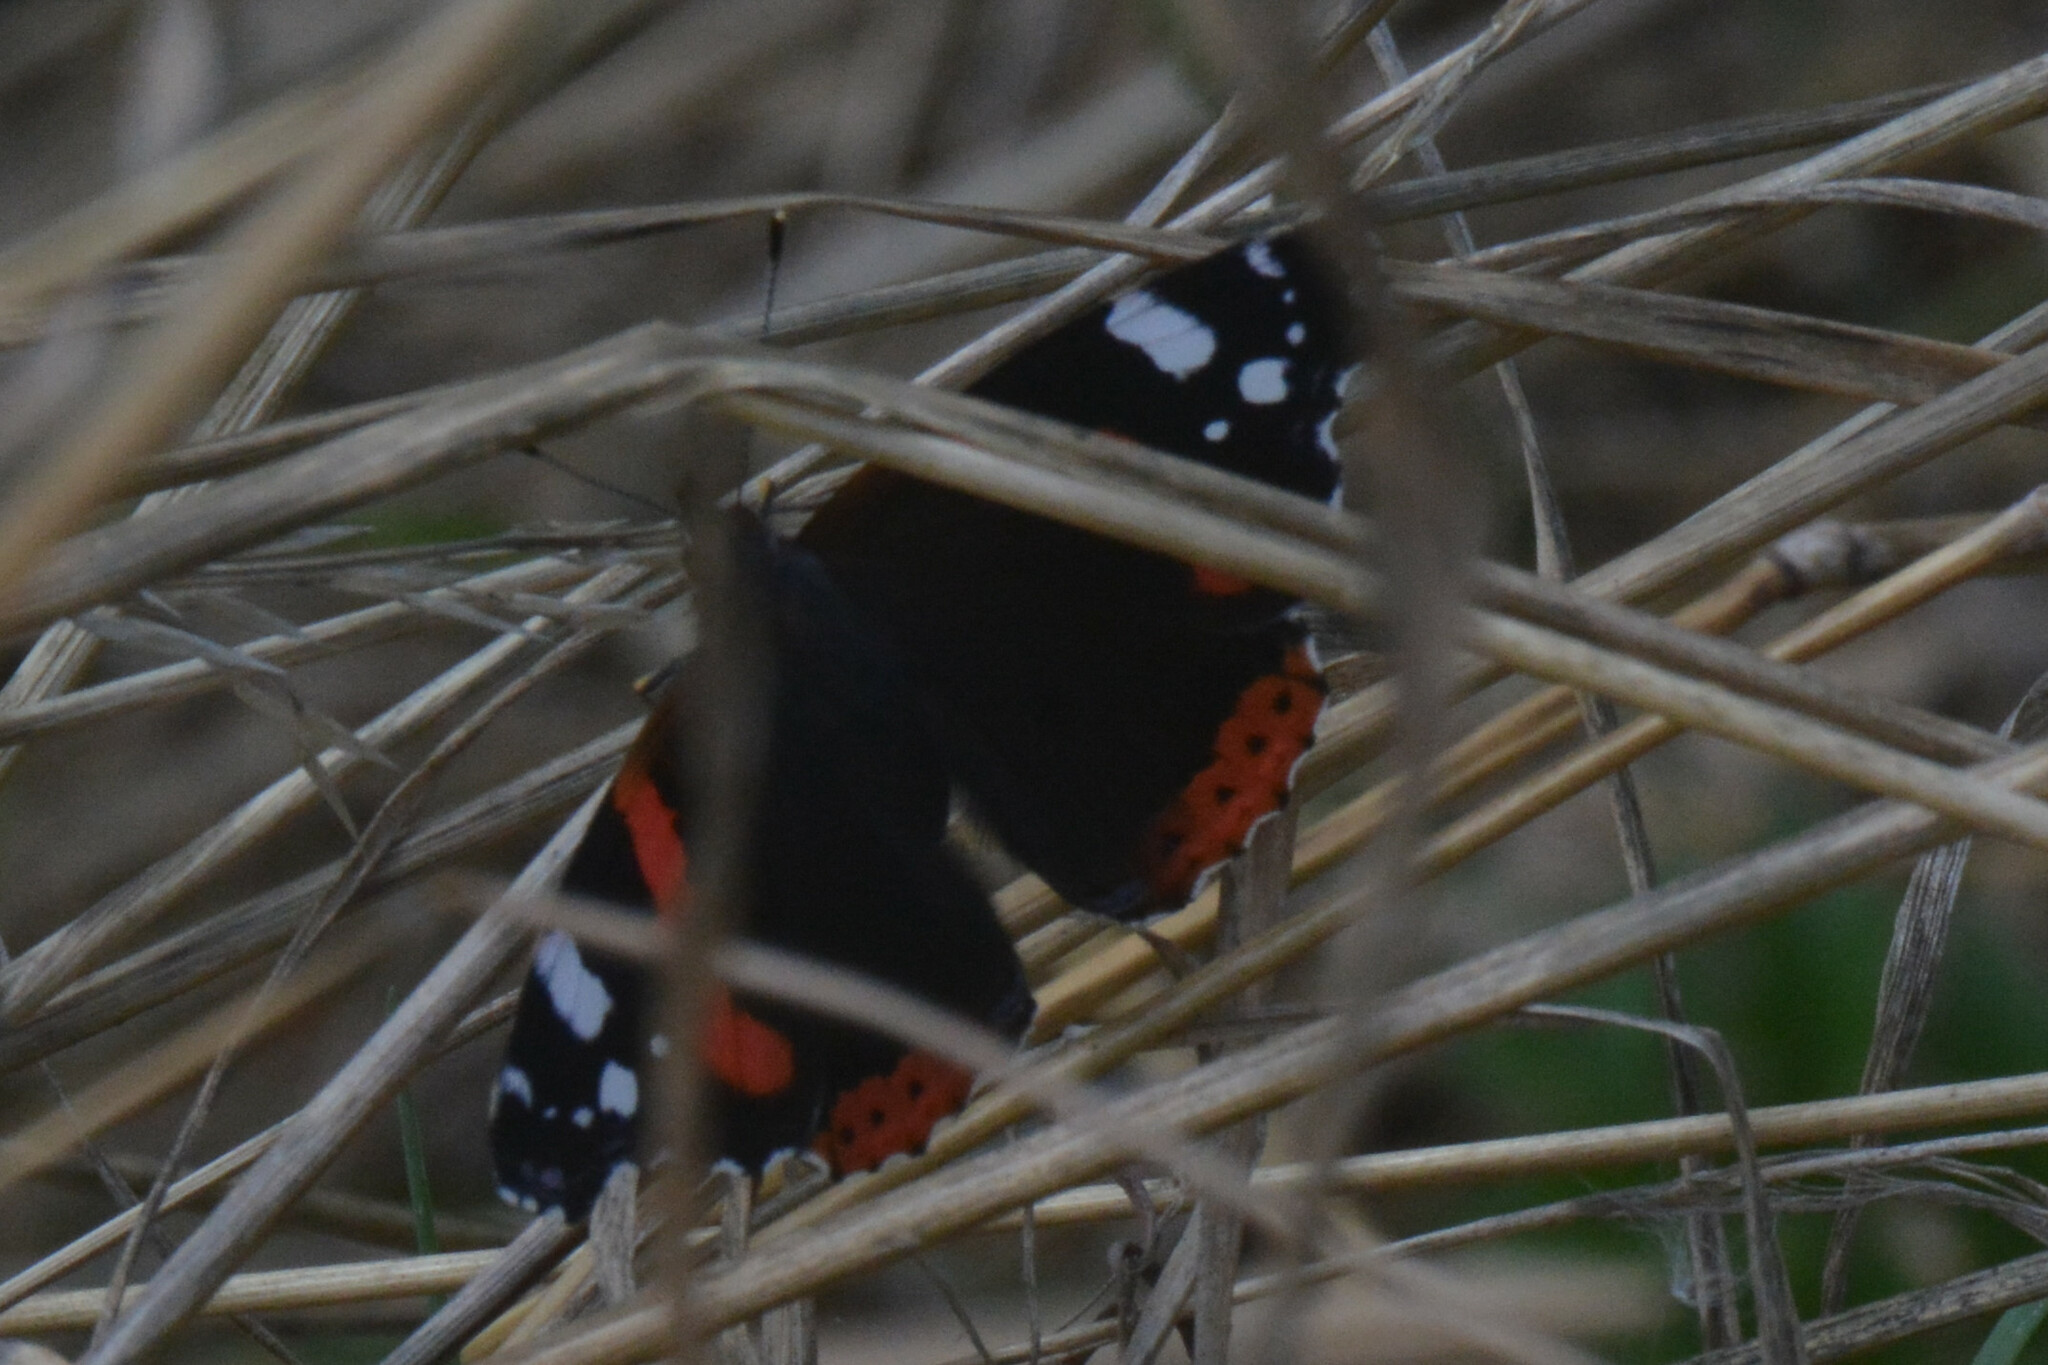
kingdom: Animalia
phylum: Arthropoda
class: Insecta
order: Lepidoptera
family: Nymphalidae
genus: Vanessa
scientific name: Vanessa atalanta
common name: Red admiral
